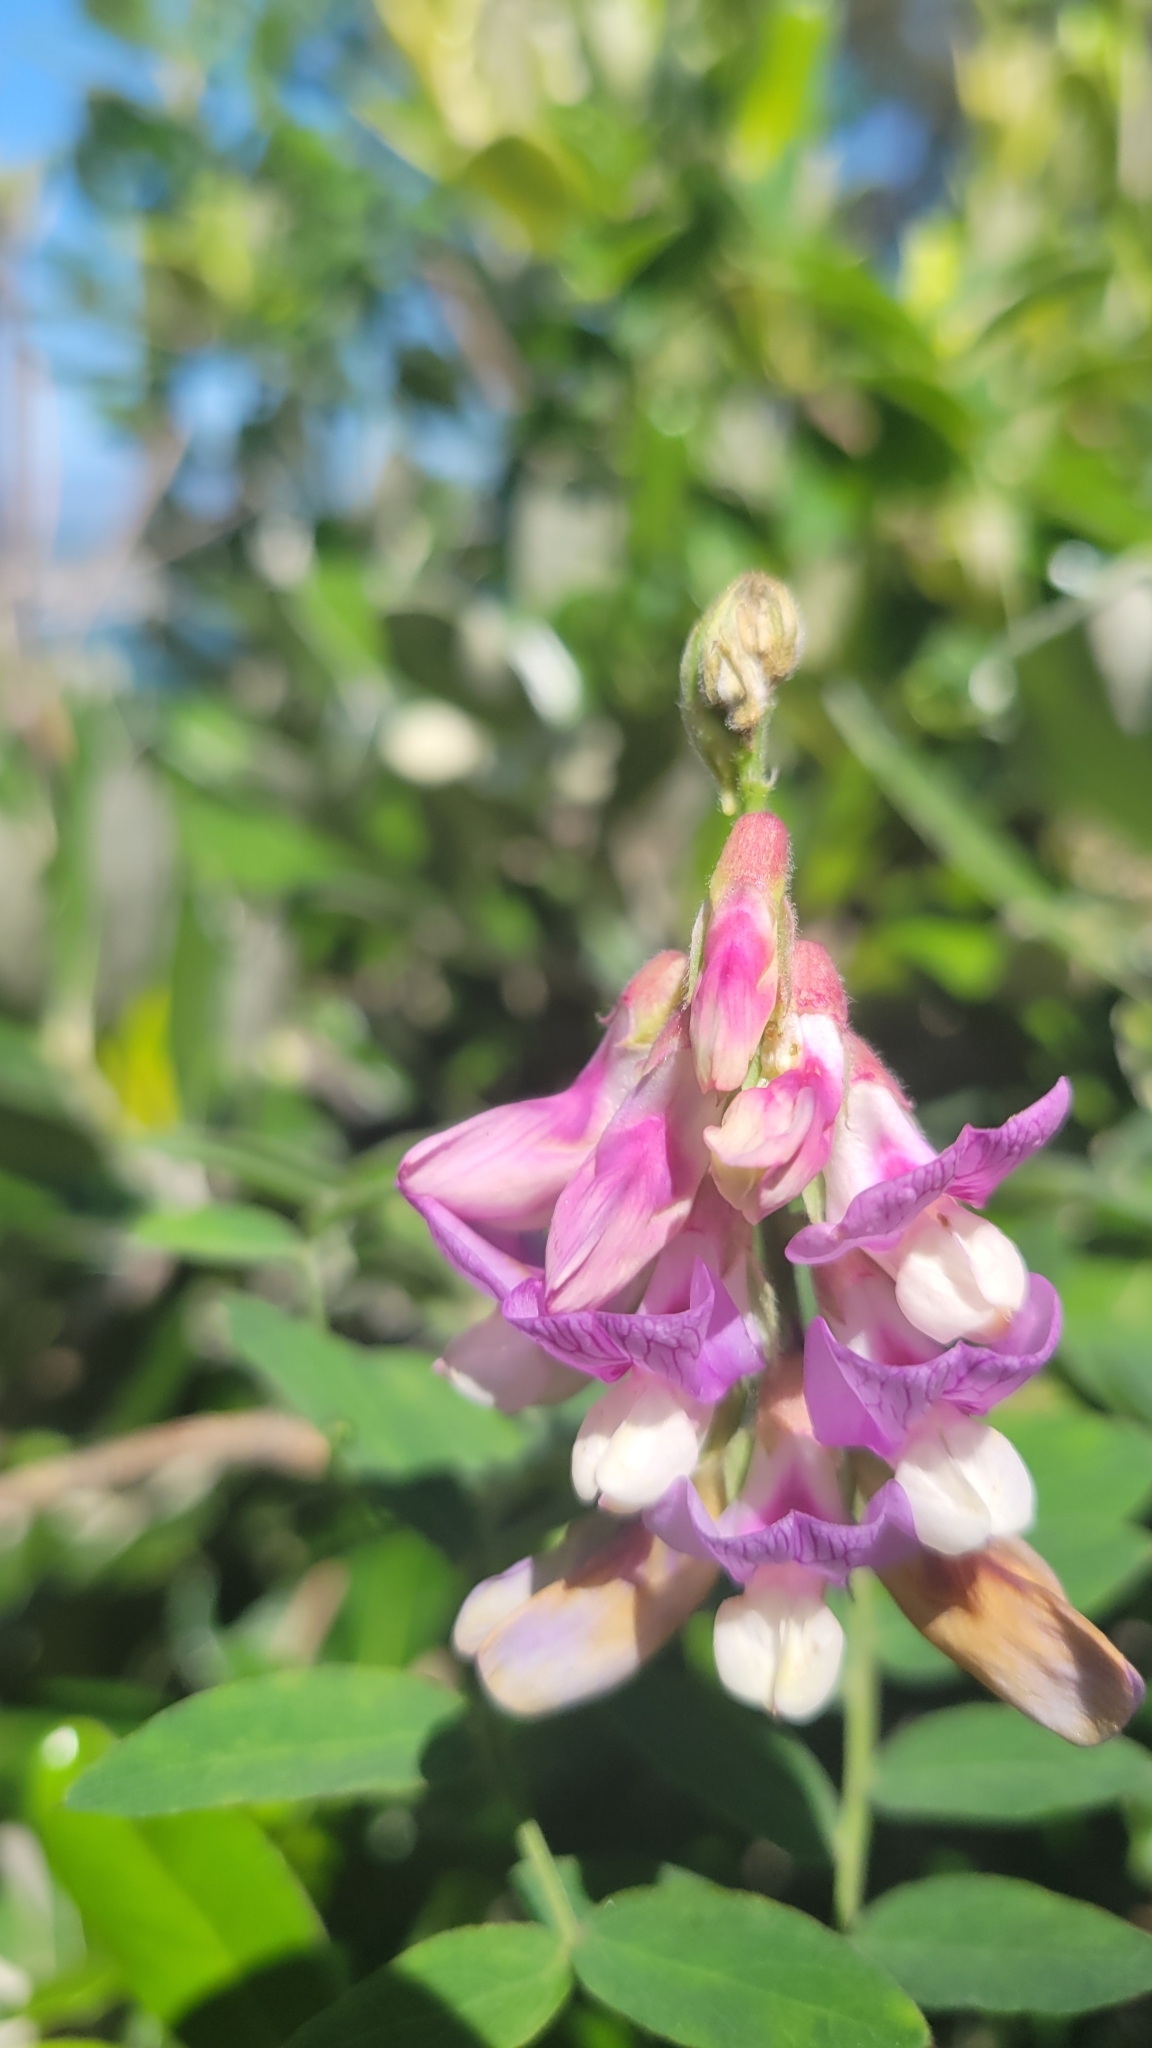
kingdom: Plantae
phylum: Tracheophyta
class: Magnoliopsida
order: Fabales
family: Fabaceae
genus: Lathyrus
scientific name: Lathyrus vestitus
